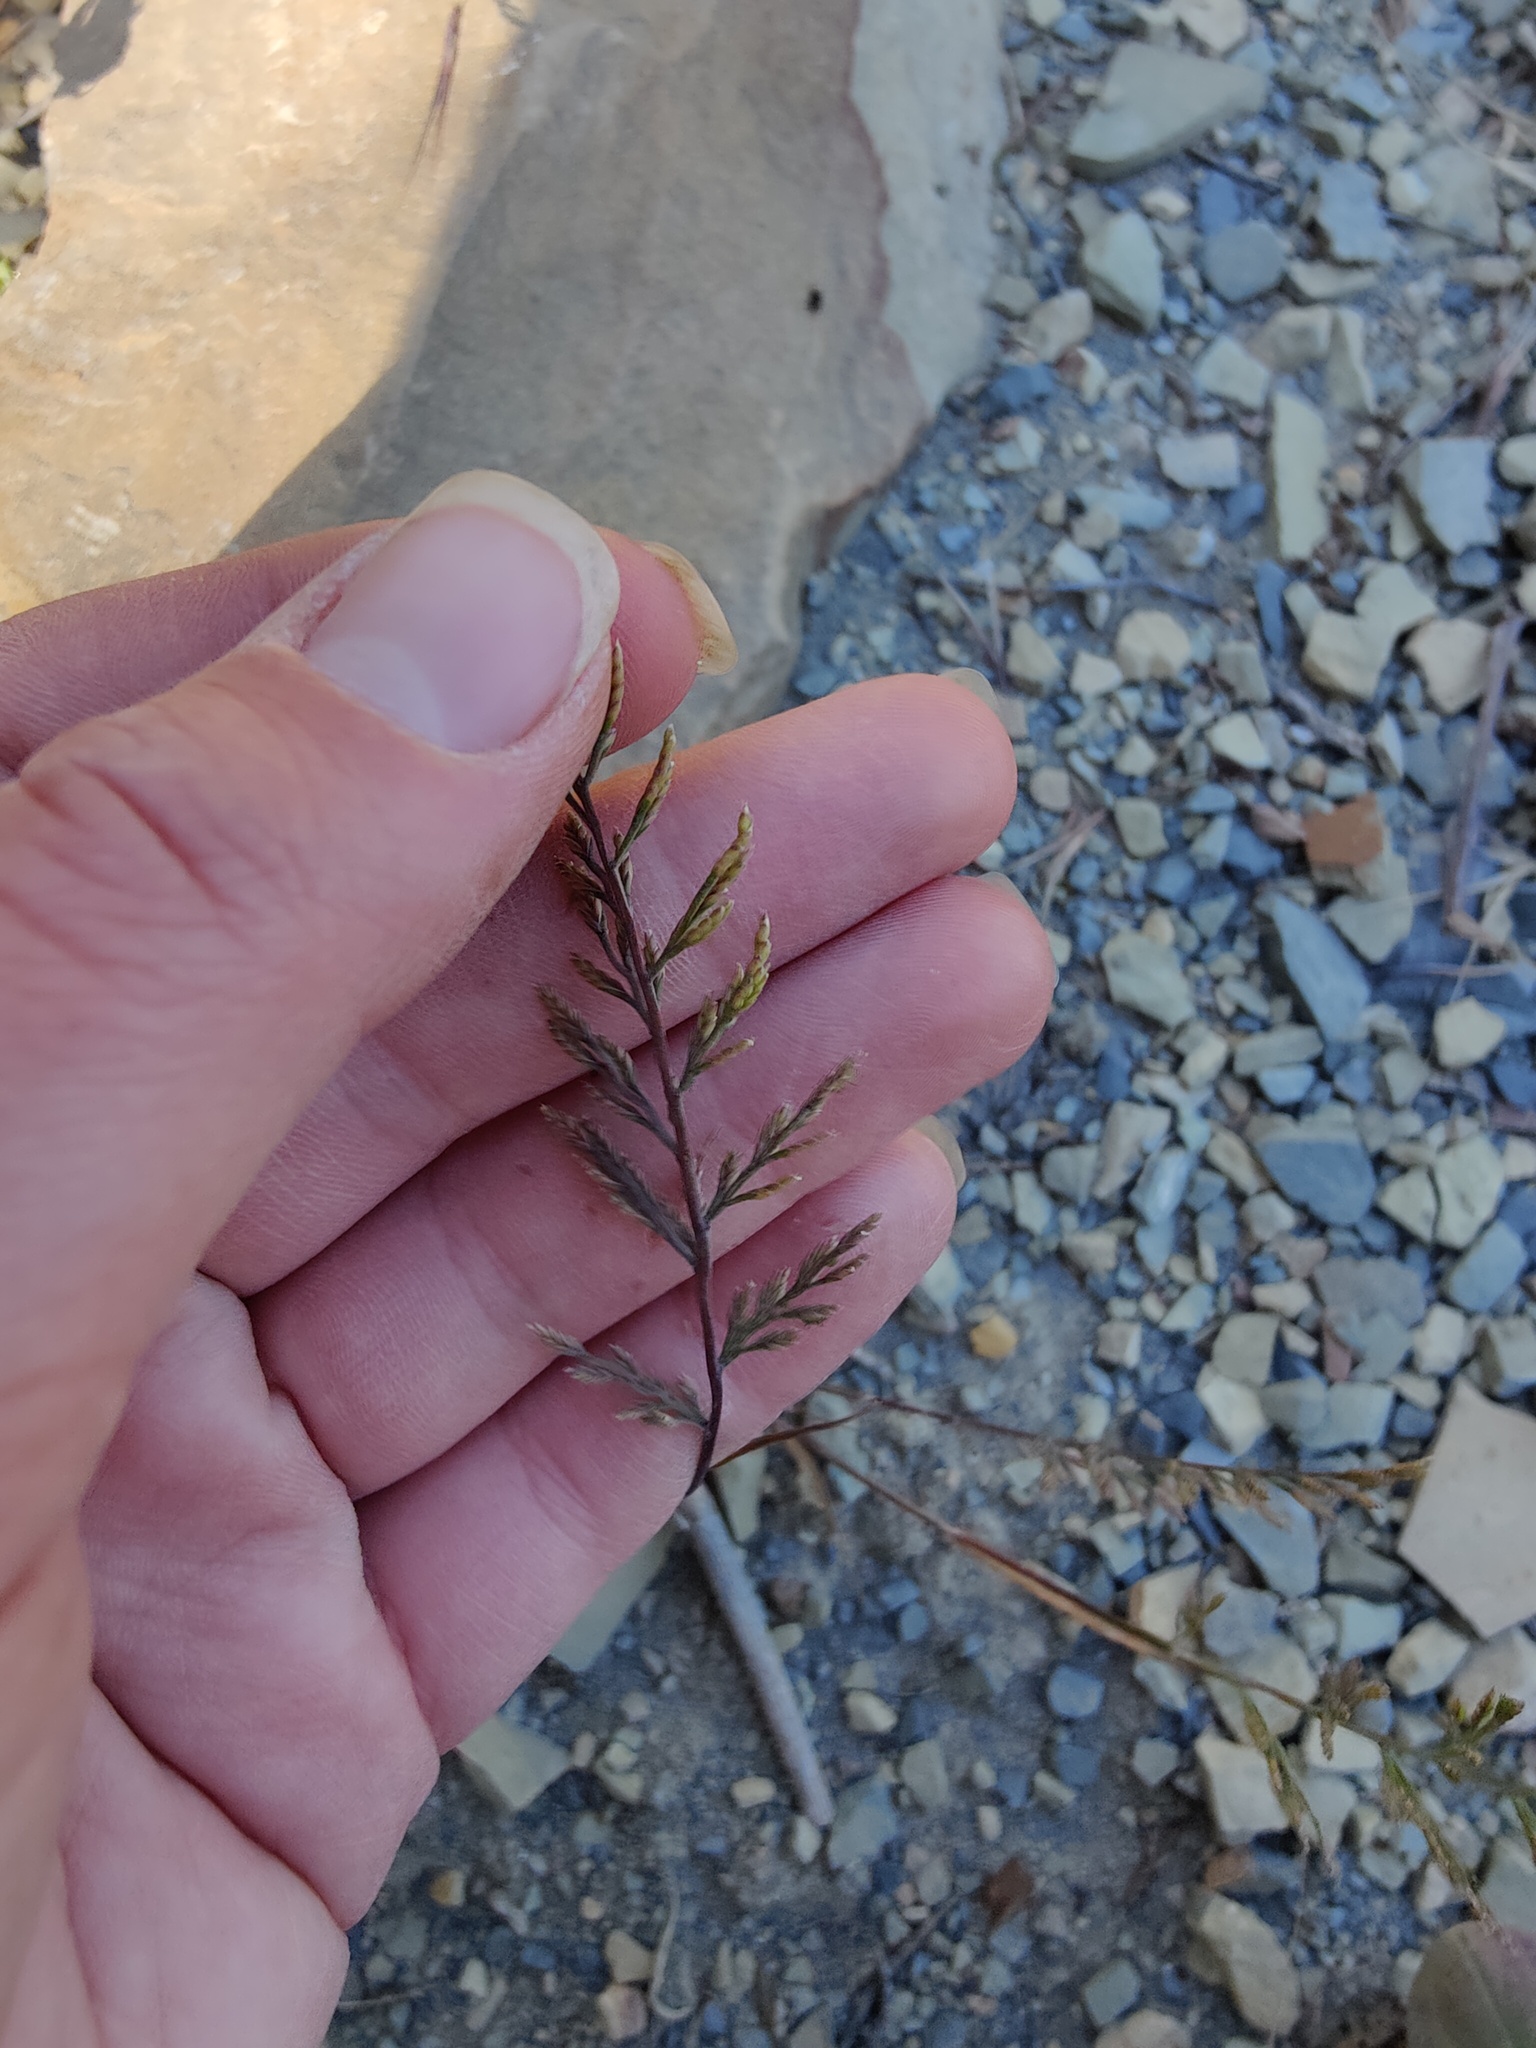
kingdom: Plantae
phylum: Tracheophyta
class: Liliopsida
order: Poales
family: Poaceae
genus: Catapodium
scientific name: Catapodium rigidum
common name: Fern-grass
